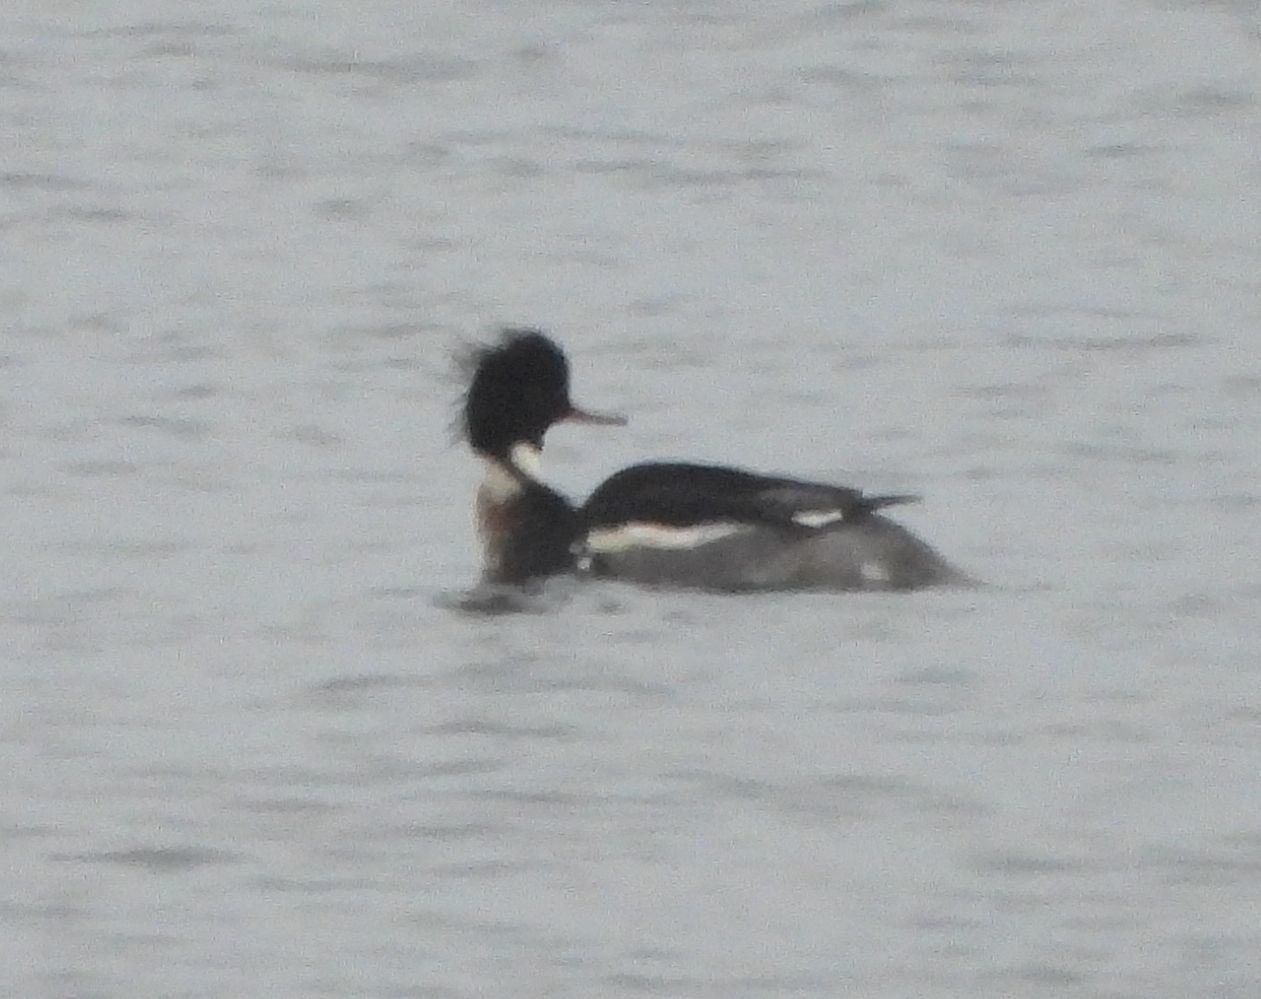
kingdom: Animalia
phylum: Chordata
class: Aves
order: Anseriformes
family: Anatidae
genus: Mergus
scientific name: Mergus serrator
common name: Red-breasted merganser
